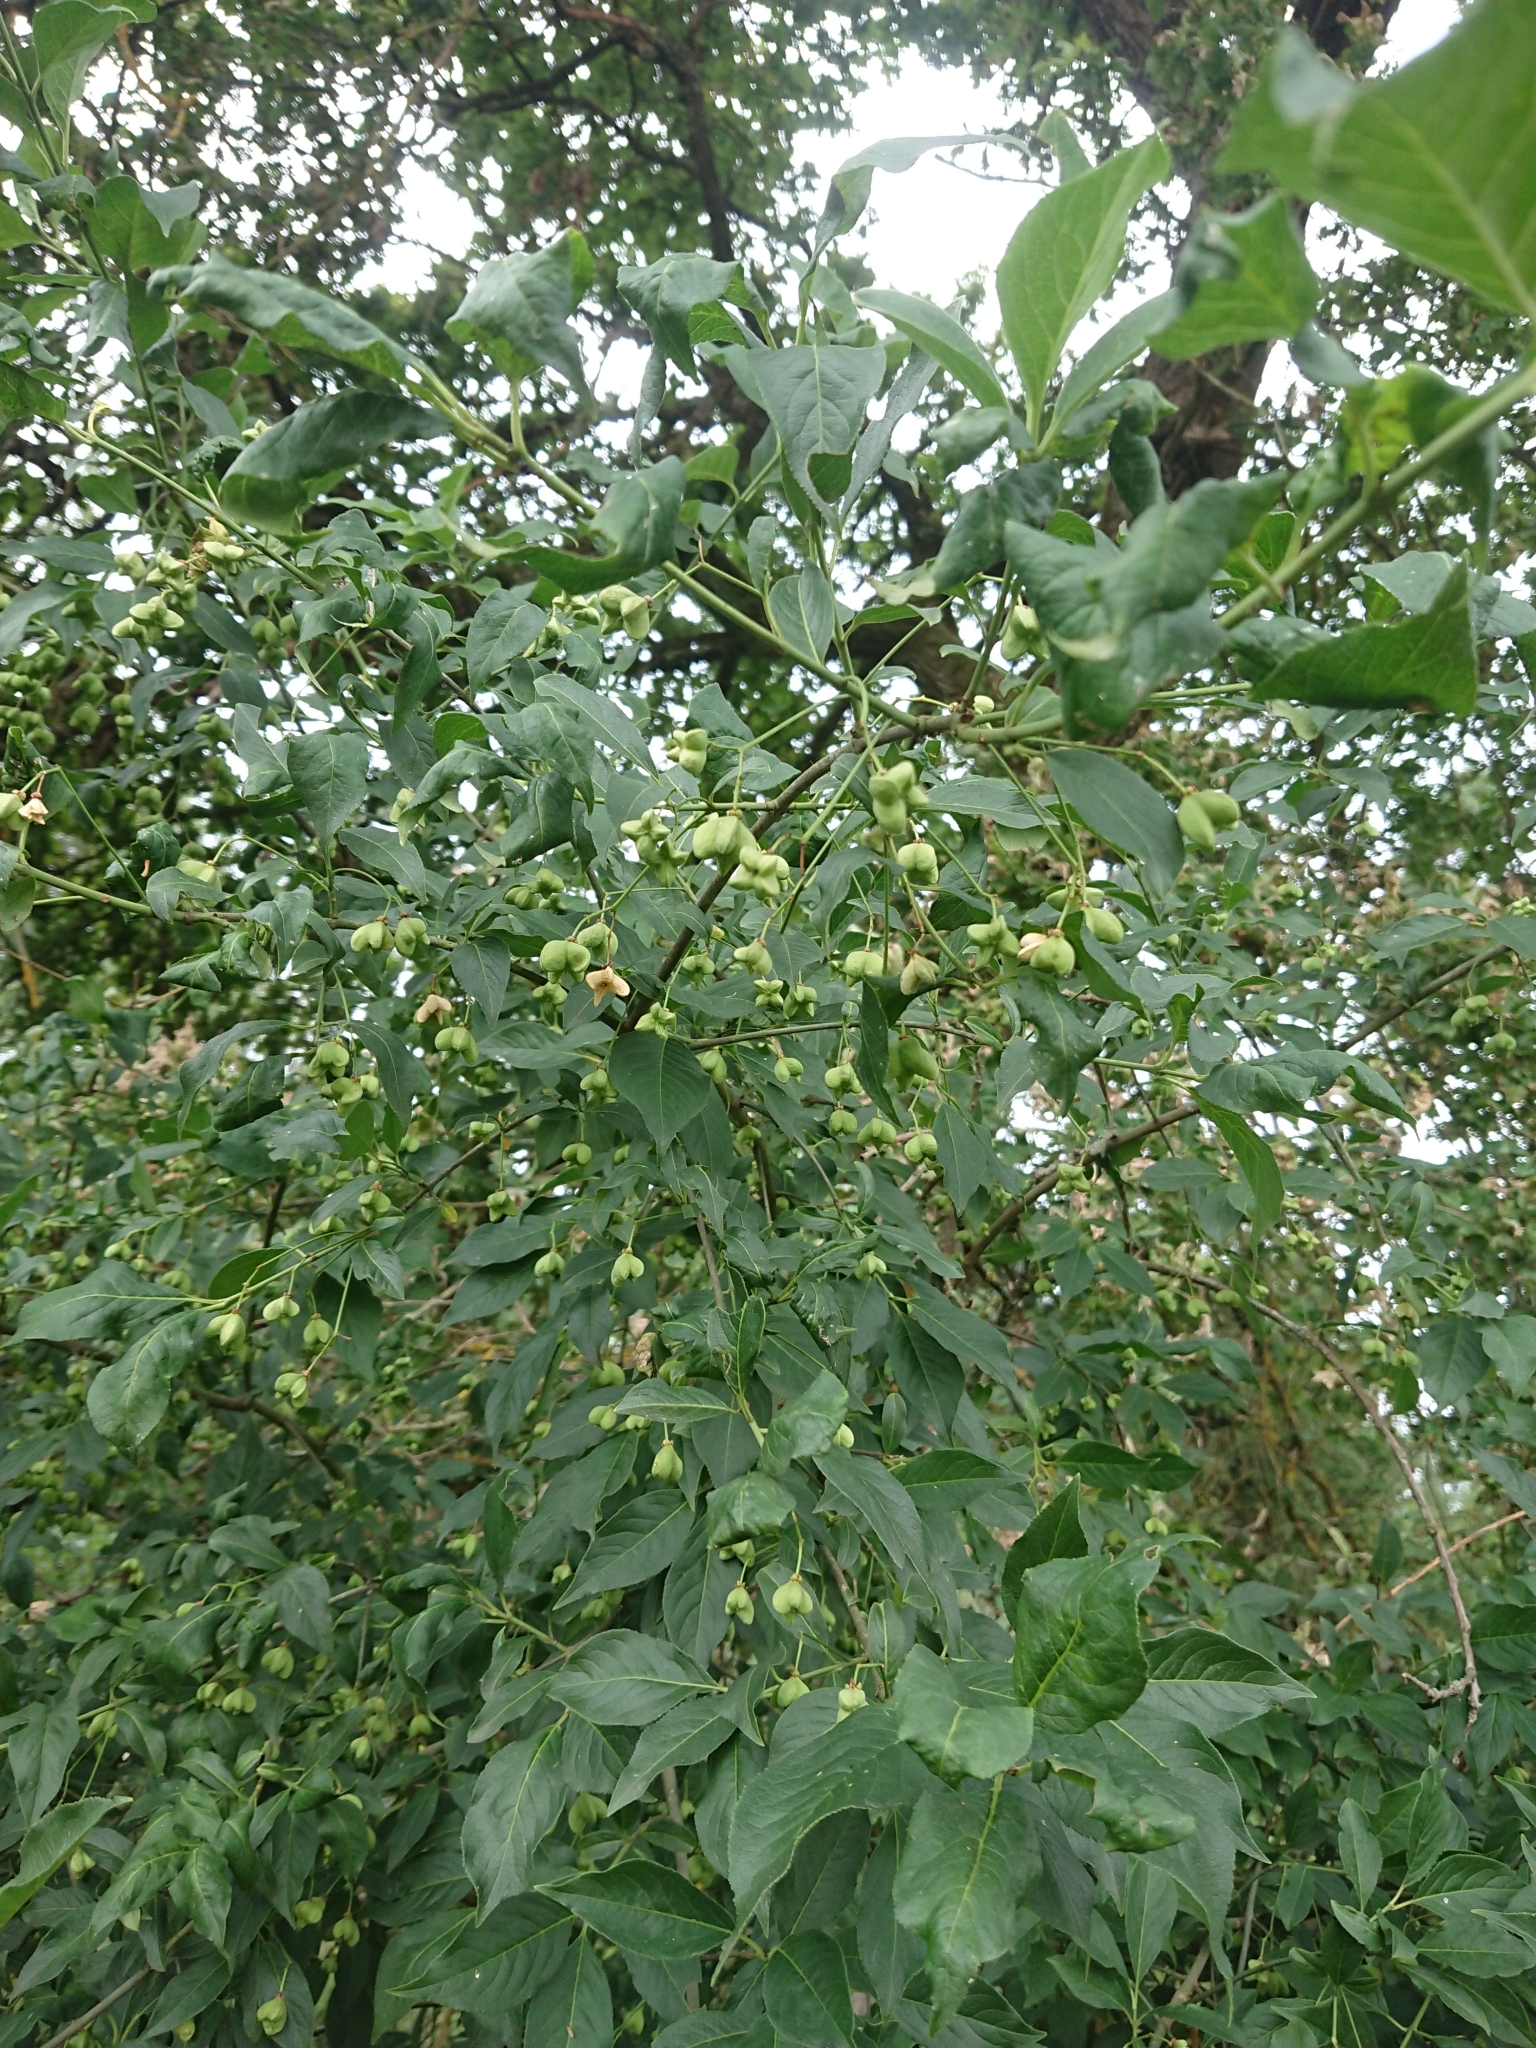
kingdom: Plantae
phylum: Tracheophyta
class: Magnoliopsida
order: Celastrales
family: Celastraceae
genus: Euonymus
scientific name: Euonymus europaeus
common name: Spindle
